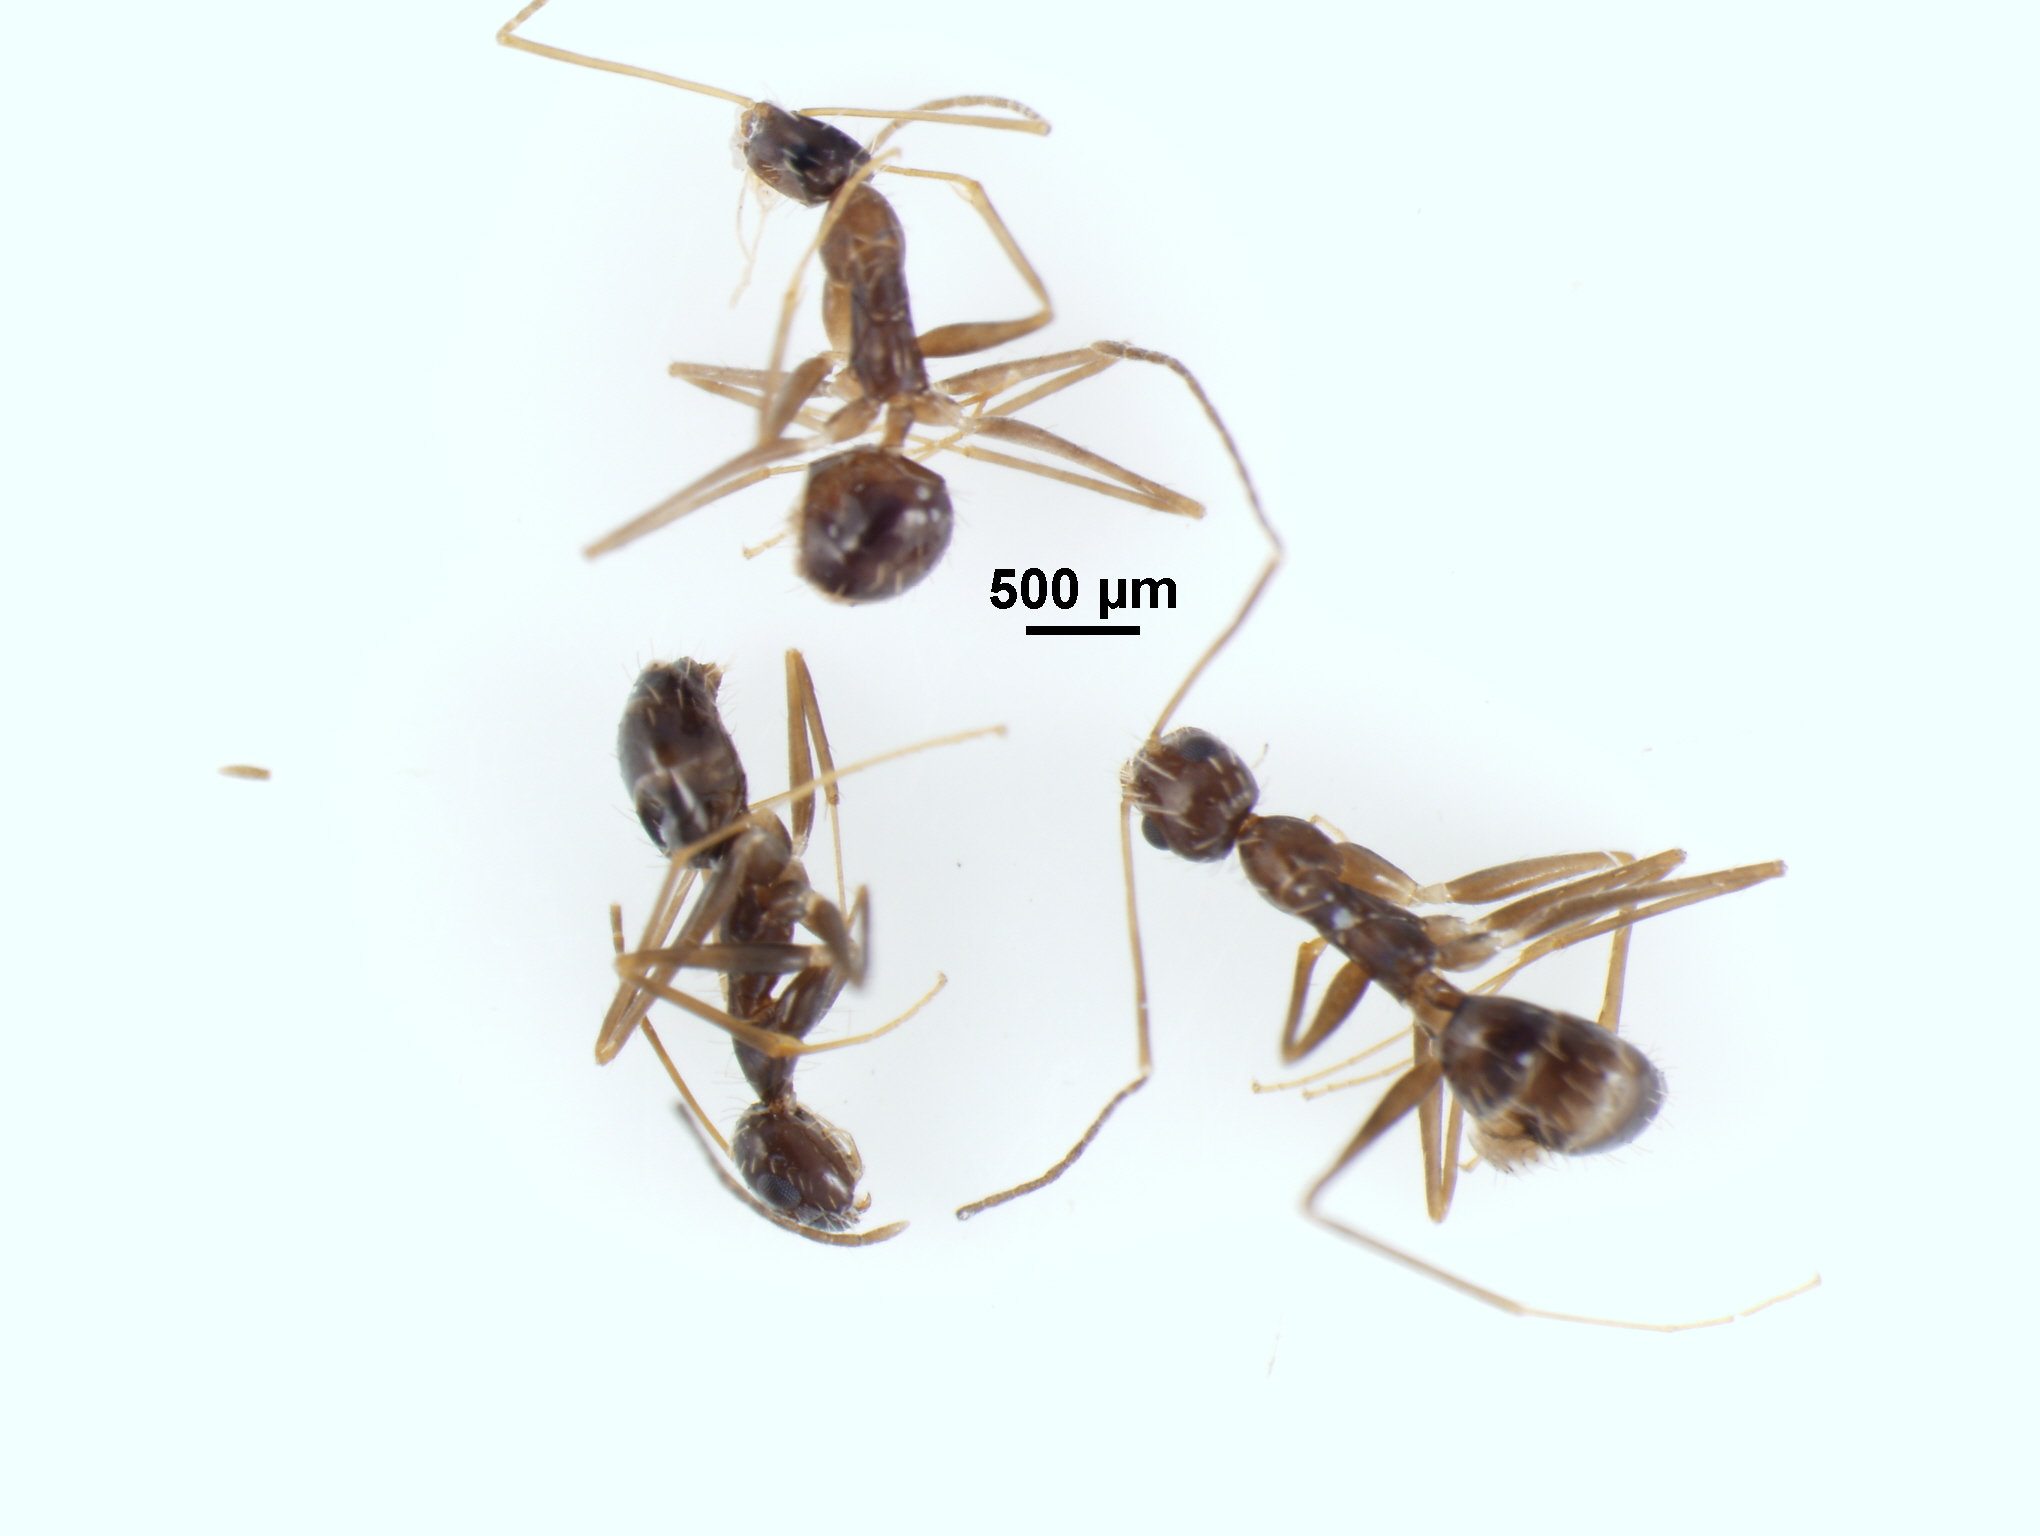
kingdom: Animalia
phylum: Arthropoda
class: Insecta
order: Hymenoptera
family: Formicidae
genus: Paratrechina
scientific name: Paratrechina longicornis
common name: Longhorned crazy ant
